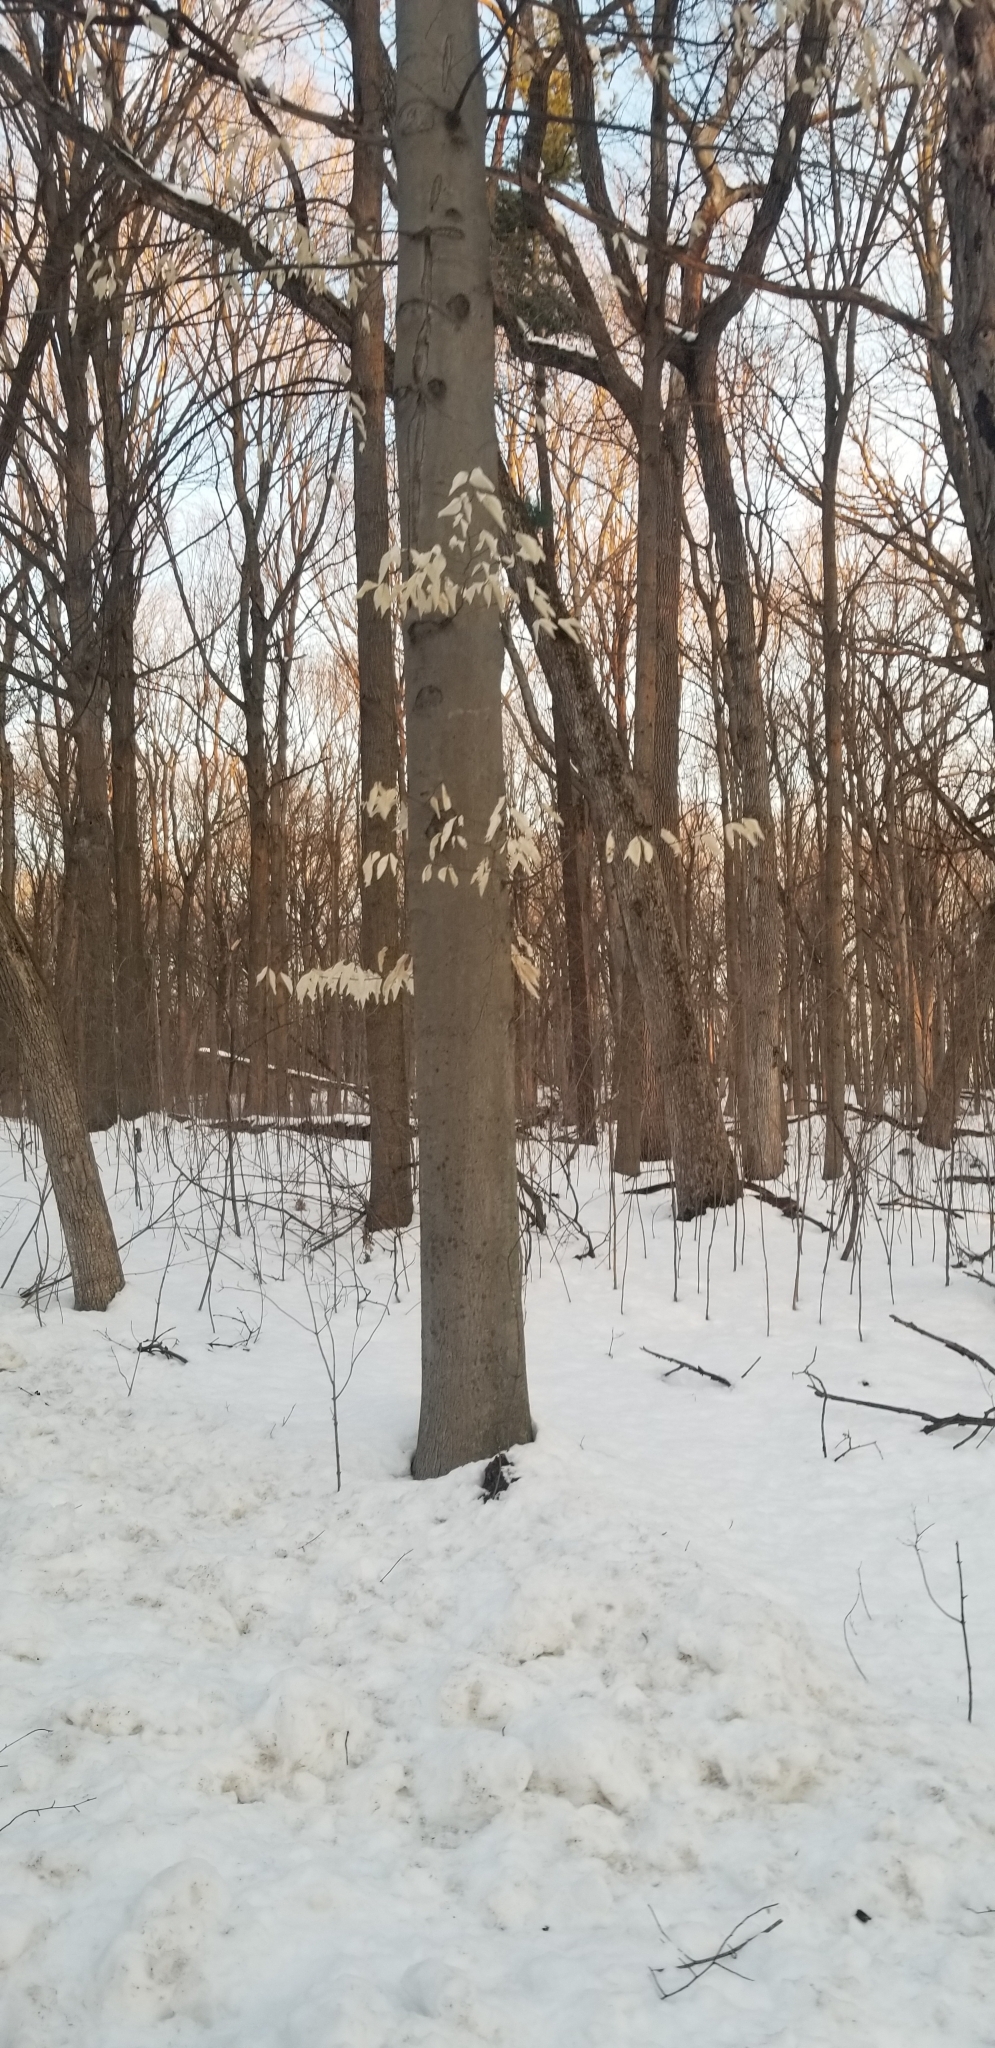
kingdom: Plantae
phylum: Tracheophyta
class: Magnoliopsida
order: Fagales
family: Fagaceae
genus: Fagus
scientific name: Fagus grandifolia
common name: American beech
